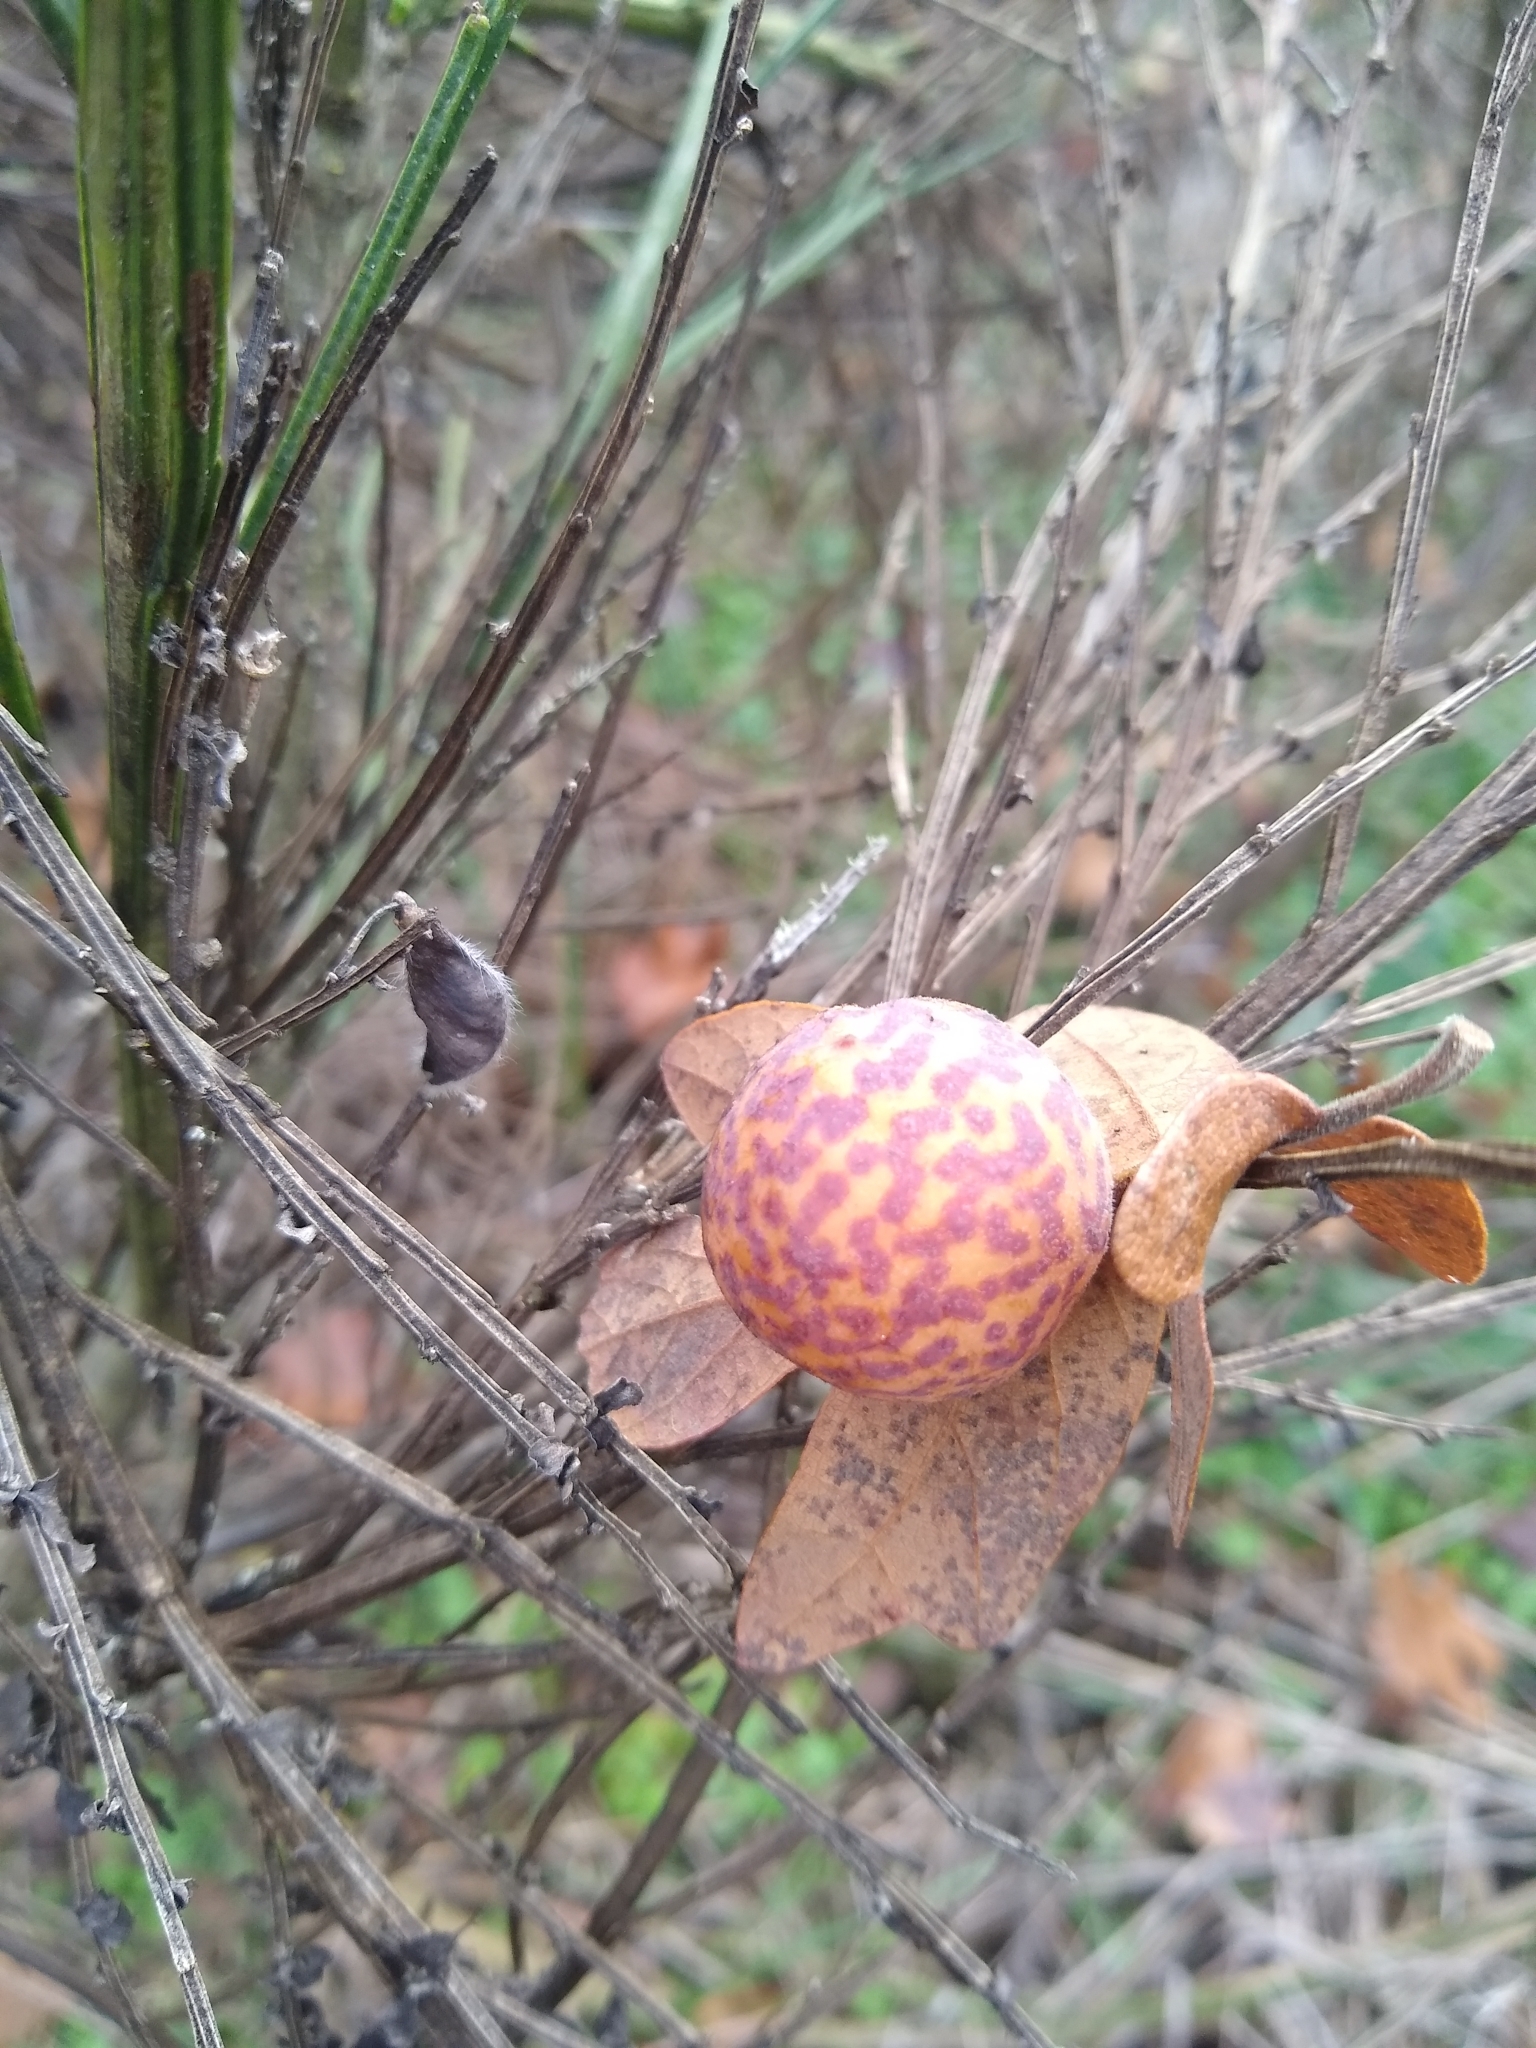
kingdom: Animalia
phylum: Arthropoda
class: Insecta
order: Hymenoptera
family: Cynipidae
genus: Cynips
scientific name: Cynips
